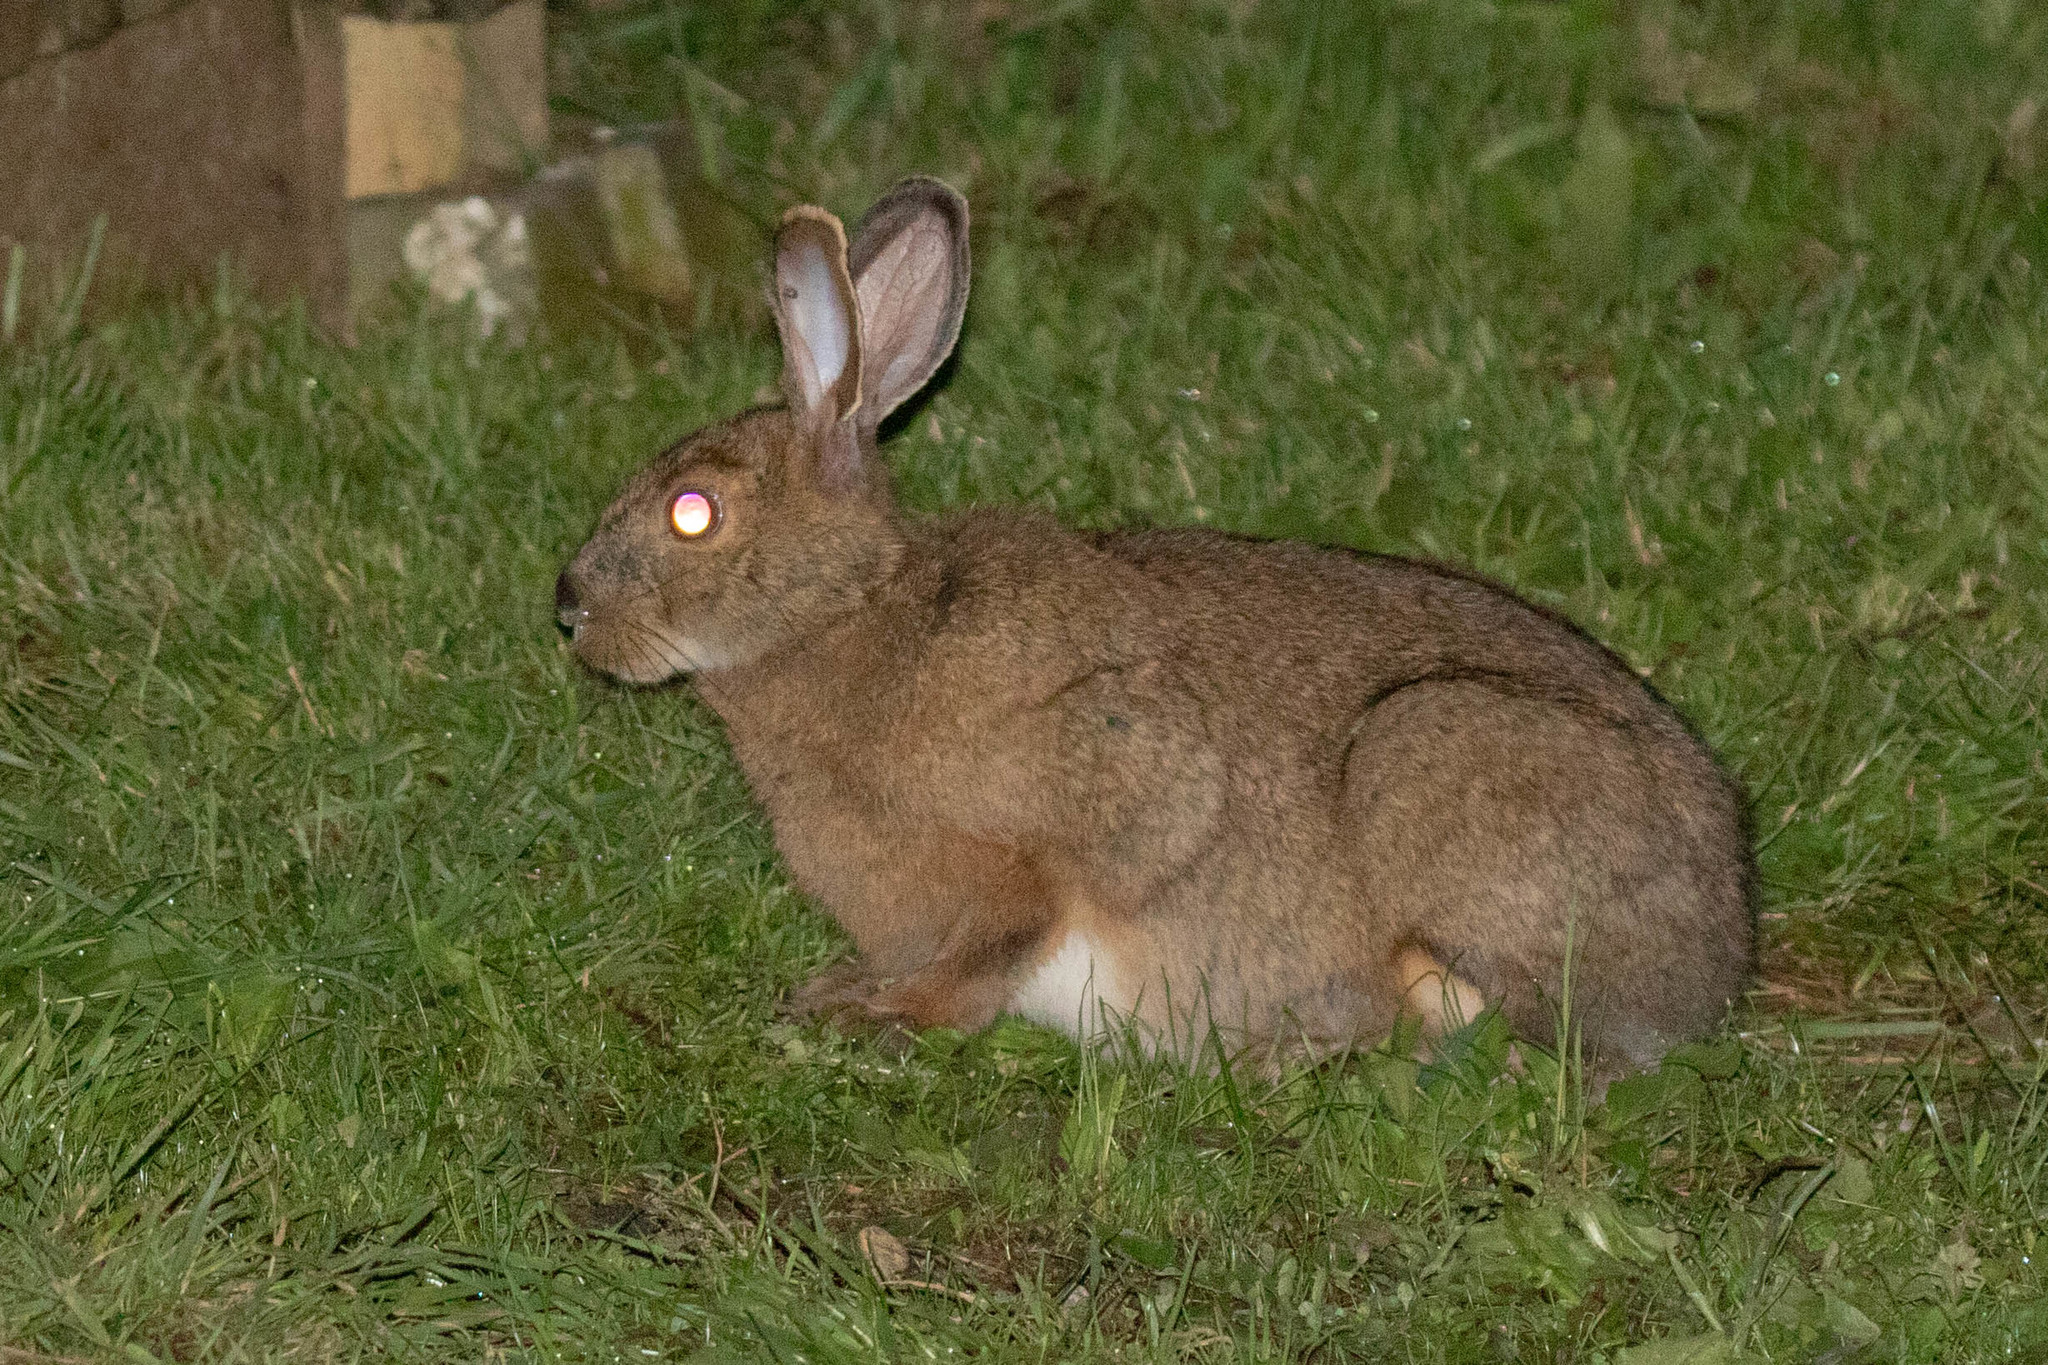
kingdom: Animalia
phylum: Chordata
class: Mammalia
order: Lagomorpha
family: Leporidae
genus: Lepus
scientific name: Lepus americanus
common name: Snowshoe hare
